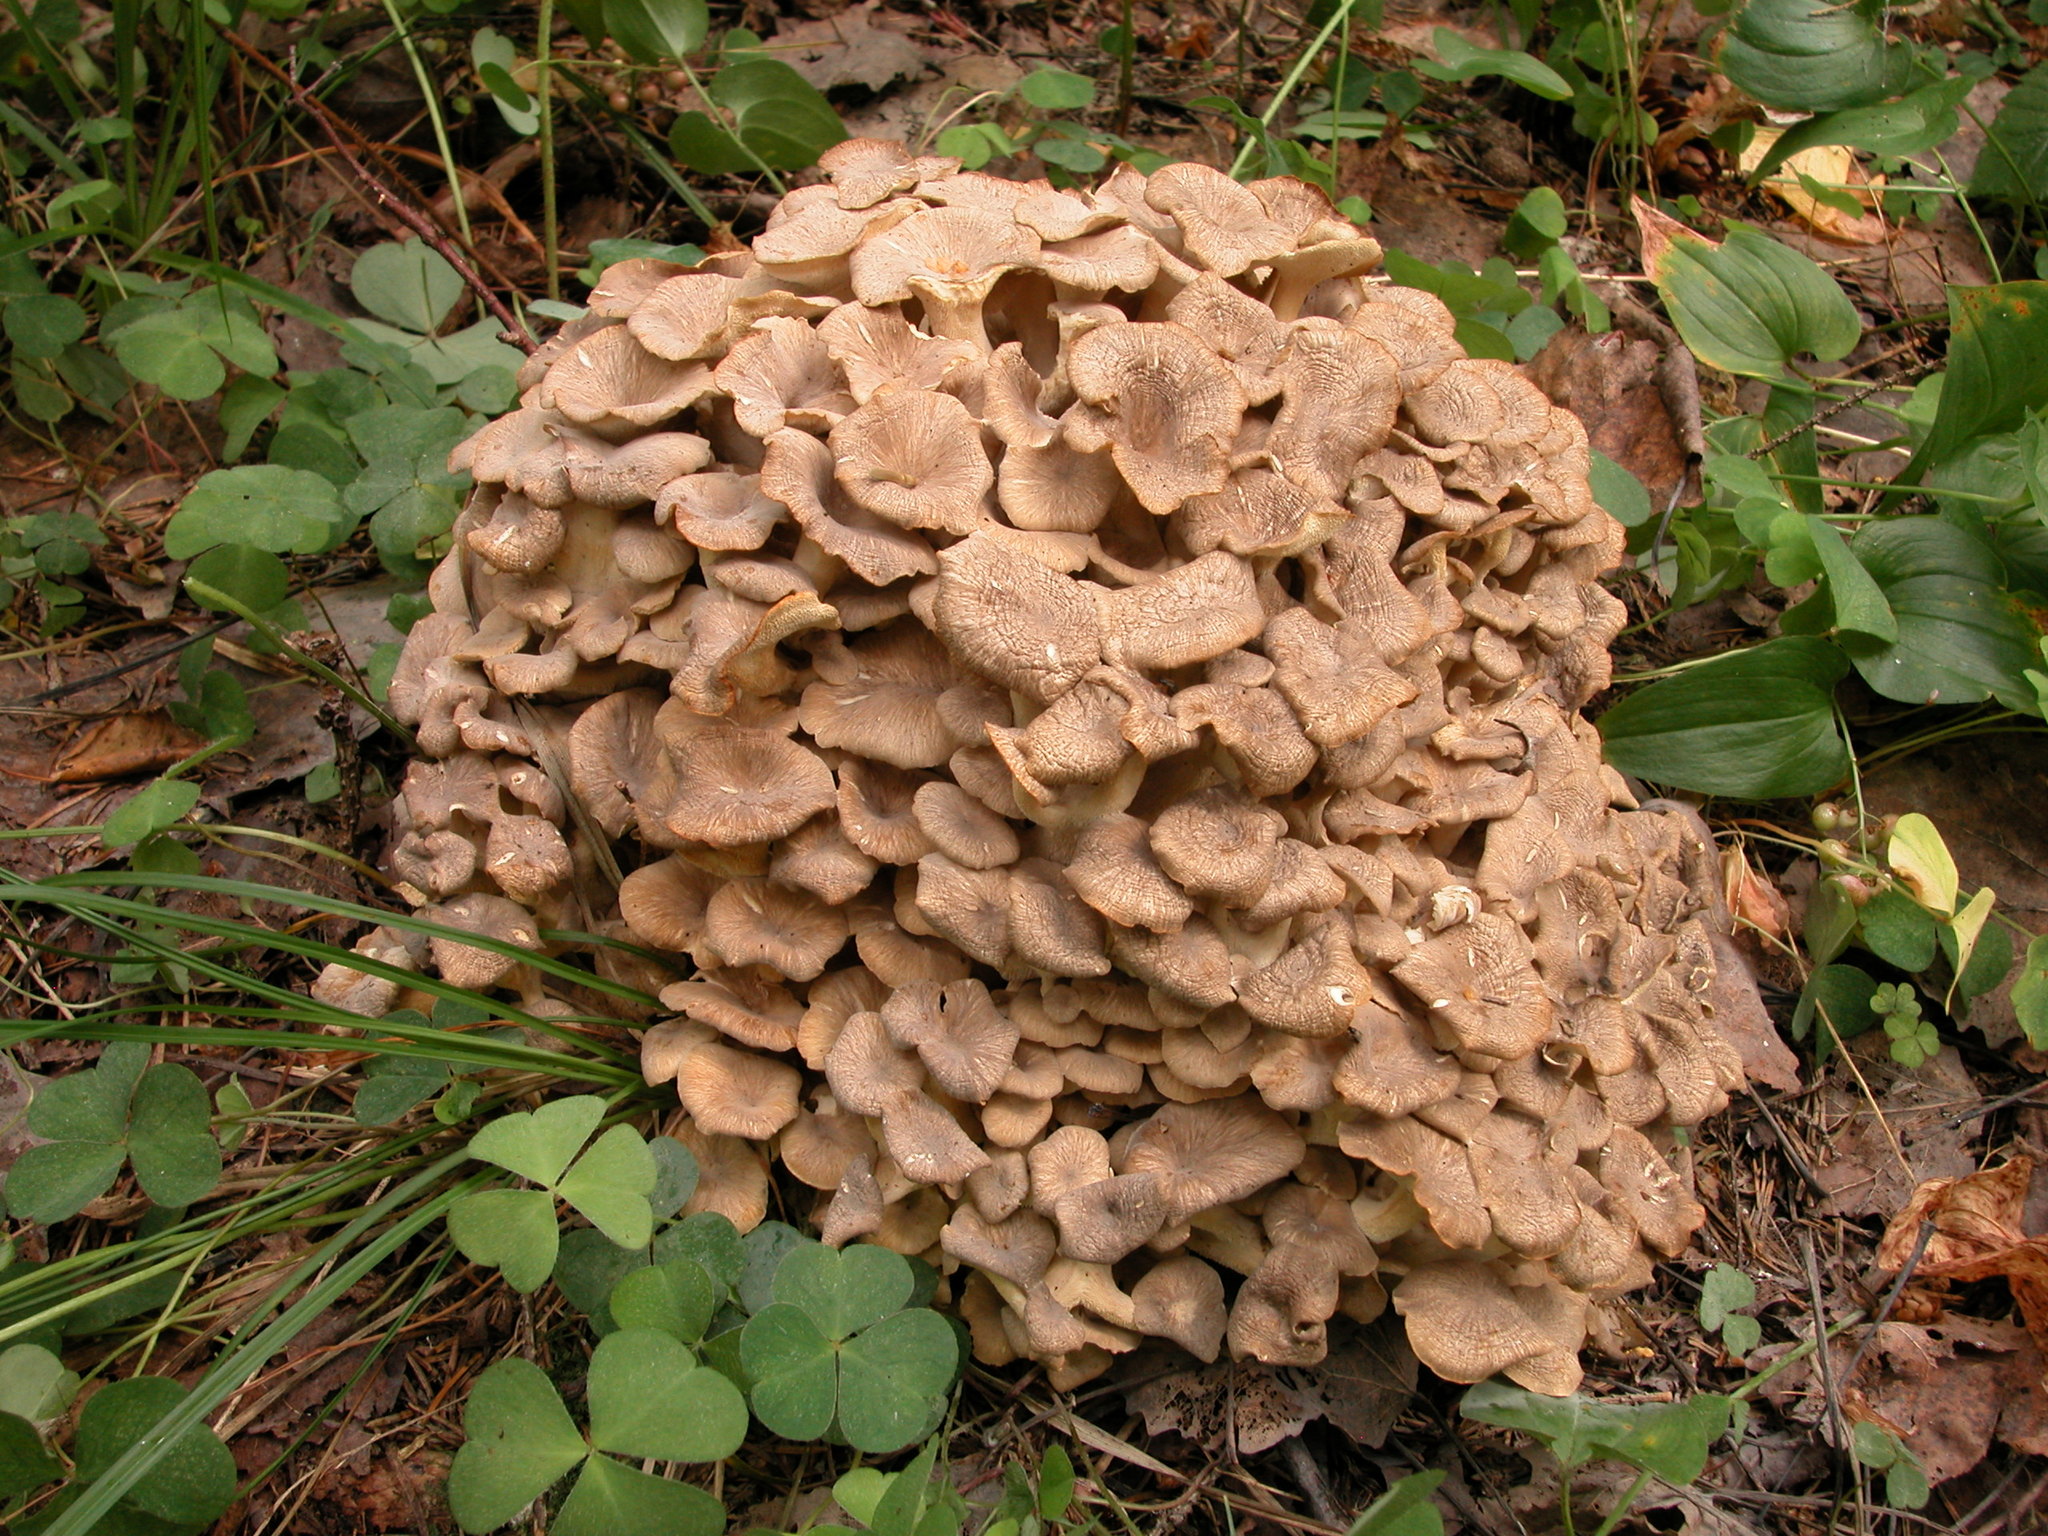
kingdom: Fungi
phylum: Basidiomycota
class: Agaricomycetes
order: Polyporales
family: Polyporaceae
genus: Polyporus
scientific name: Polyporus umbellatus
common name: Umbrella polypore
